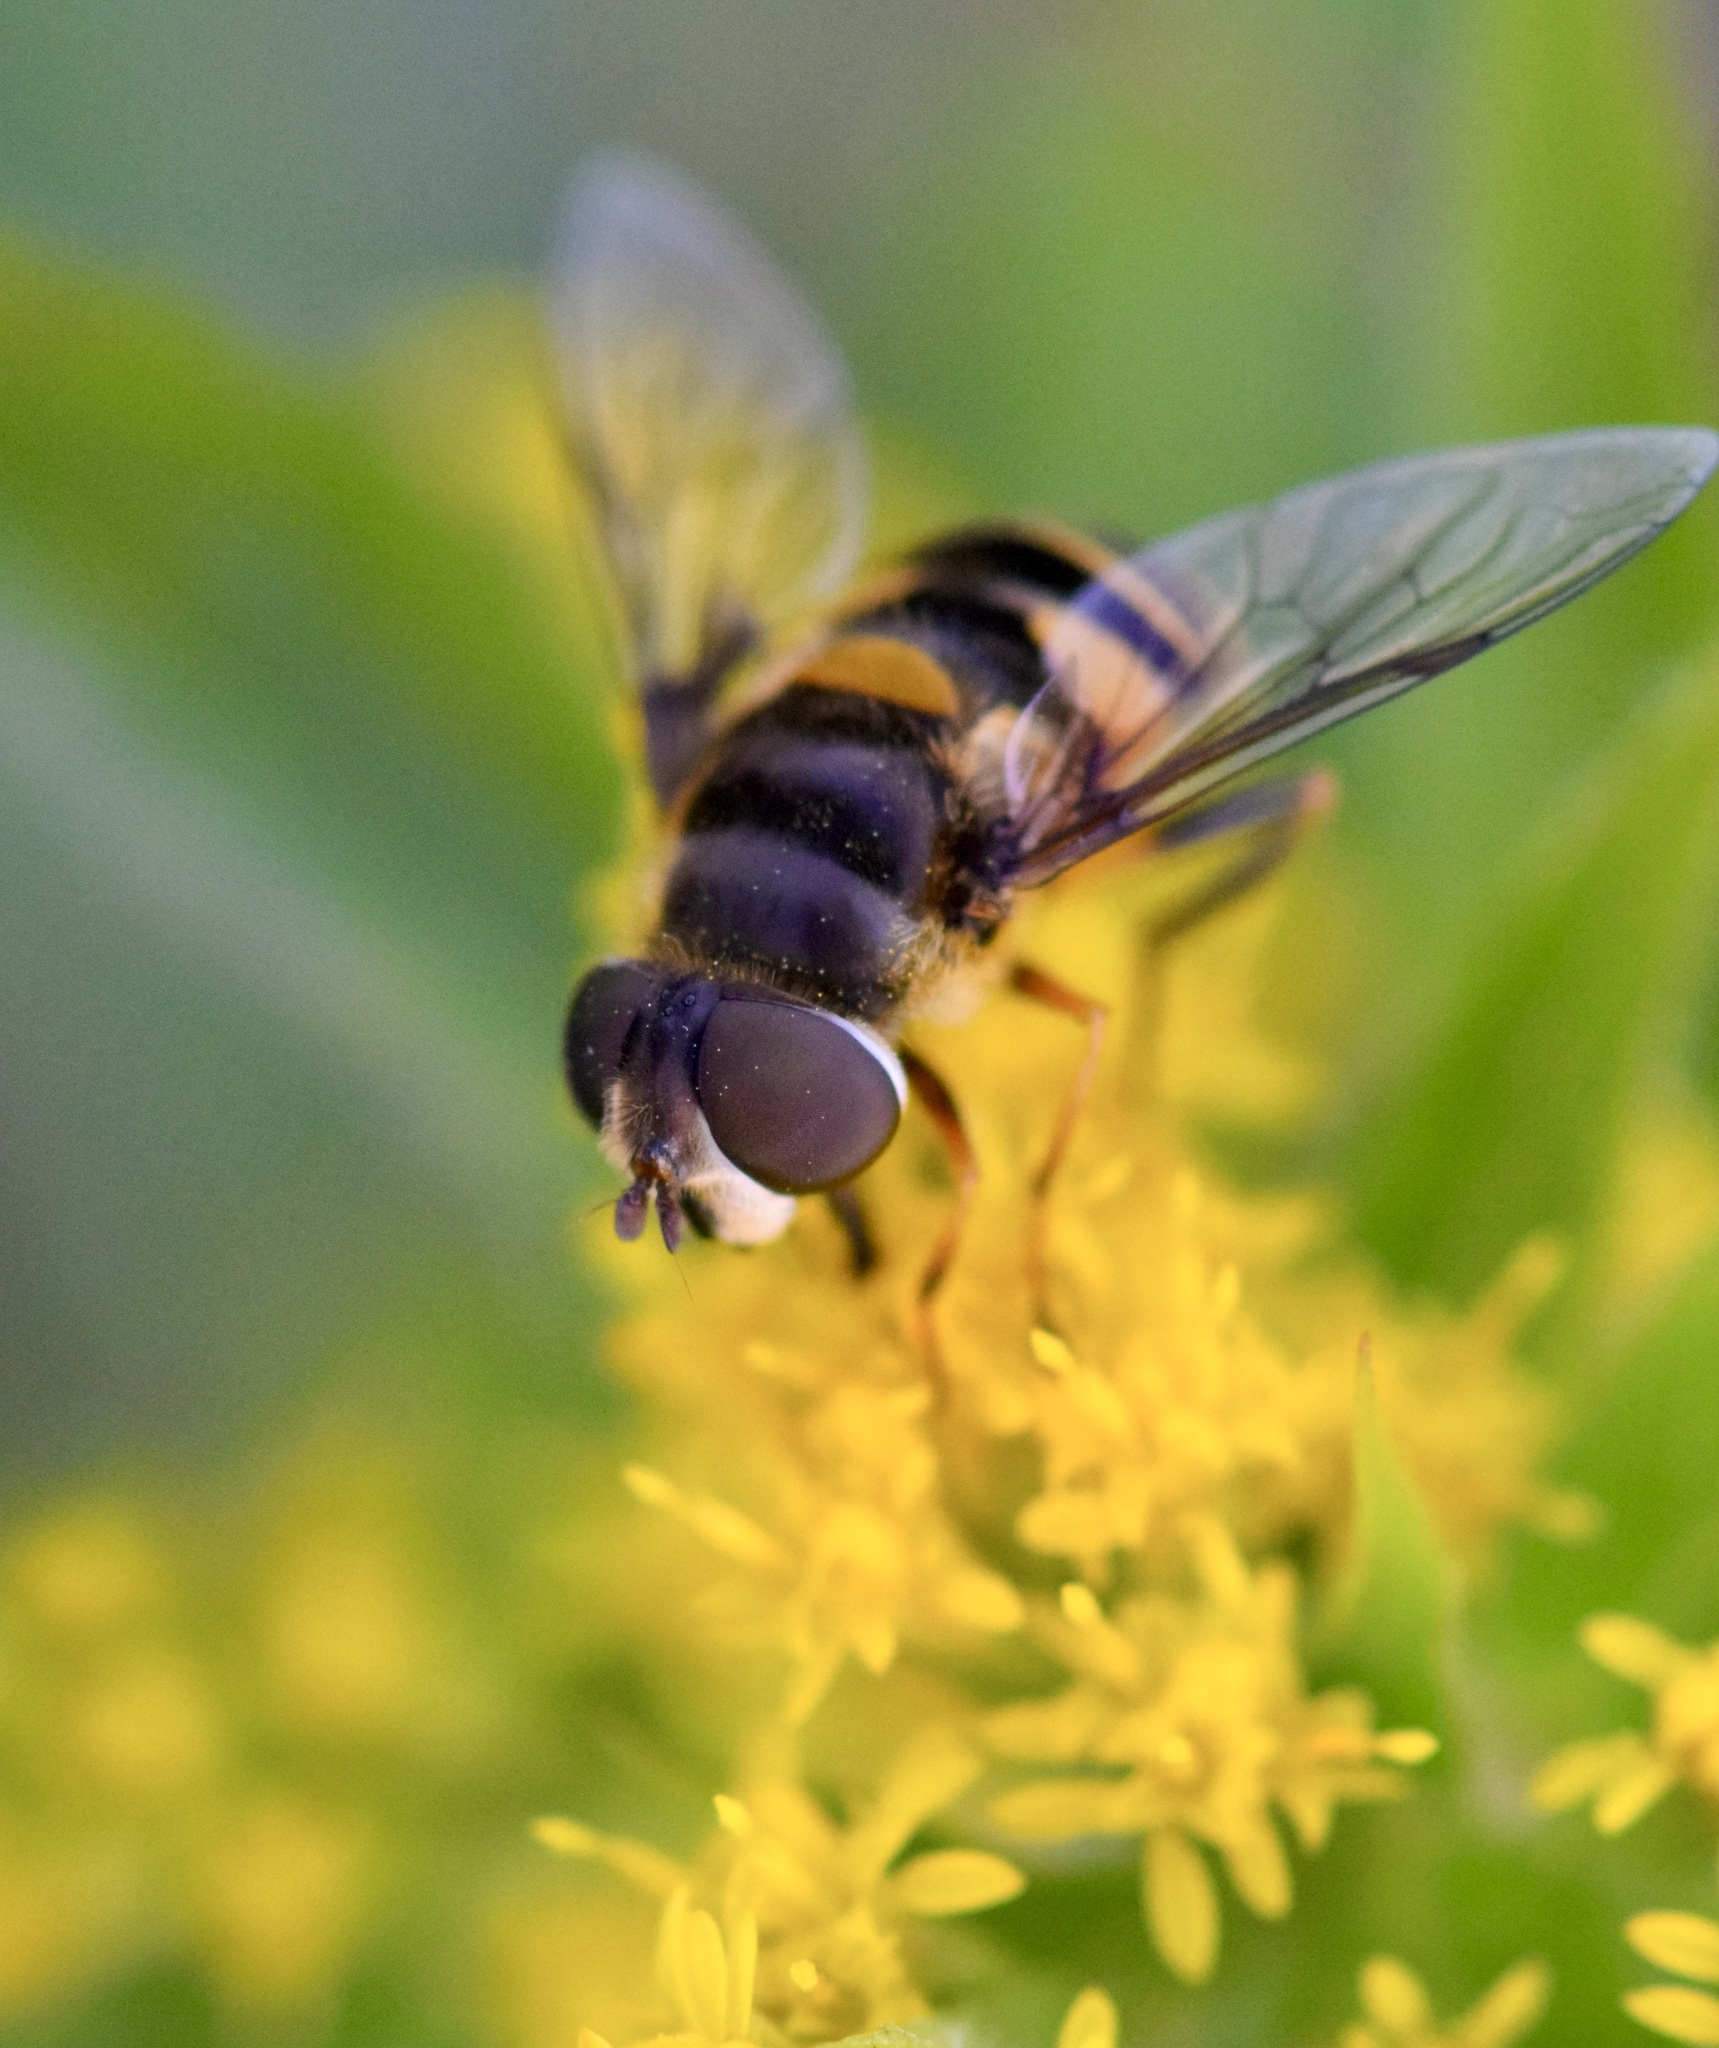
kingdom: Animalia
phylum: Arthropoda
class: Insecta
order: Diptera
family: Syrphidae
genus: Eristalis
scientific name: Eristalis transversa
